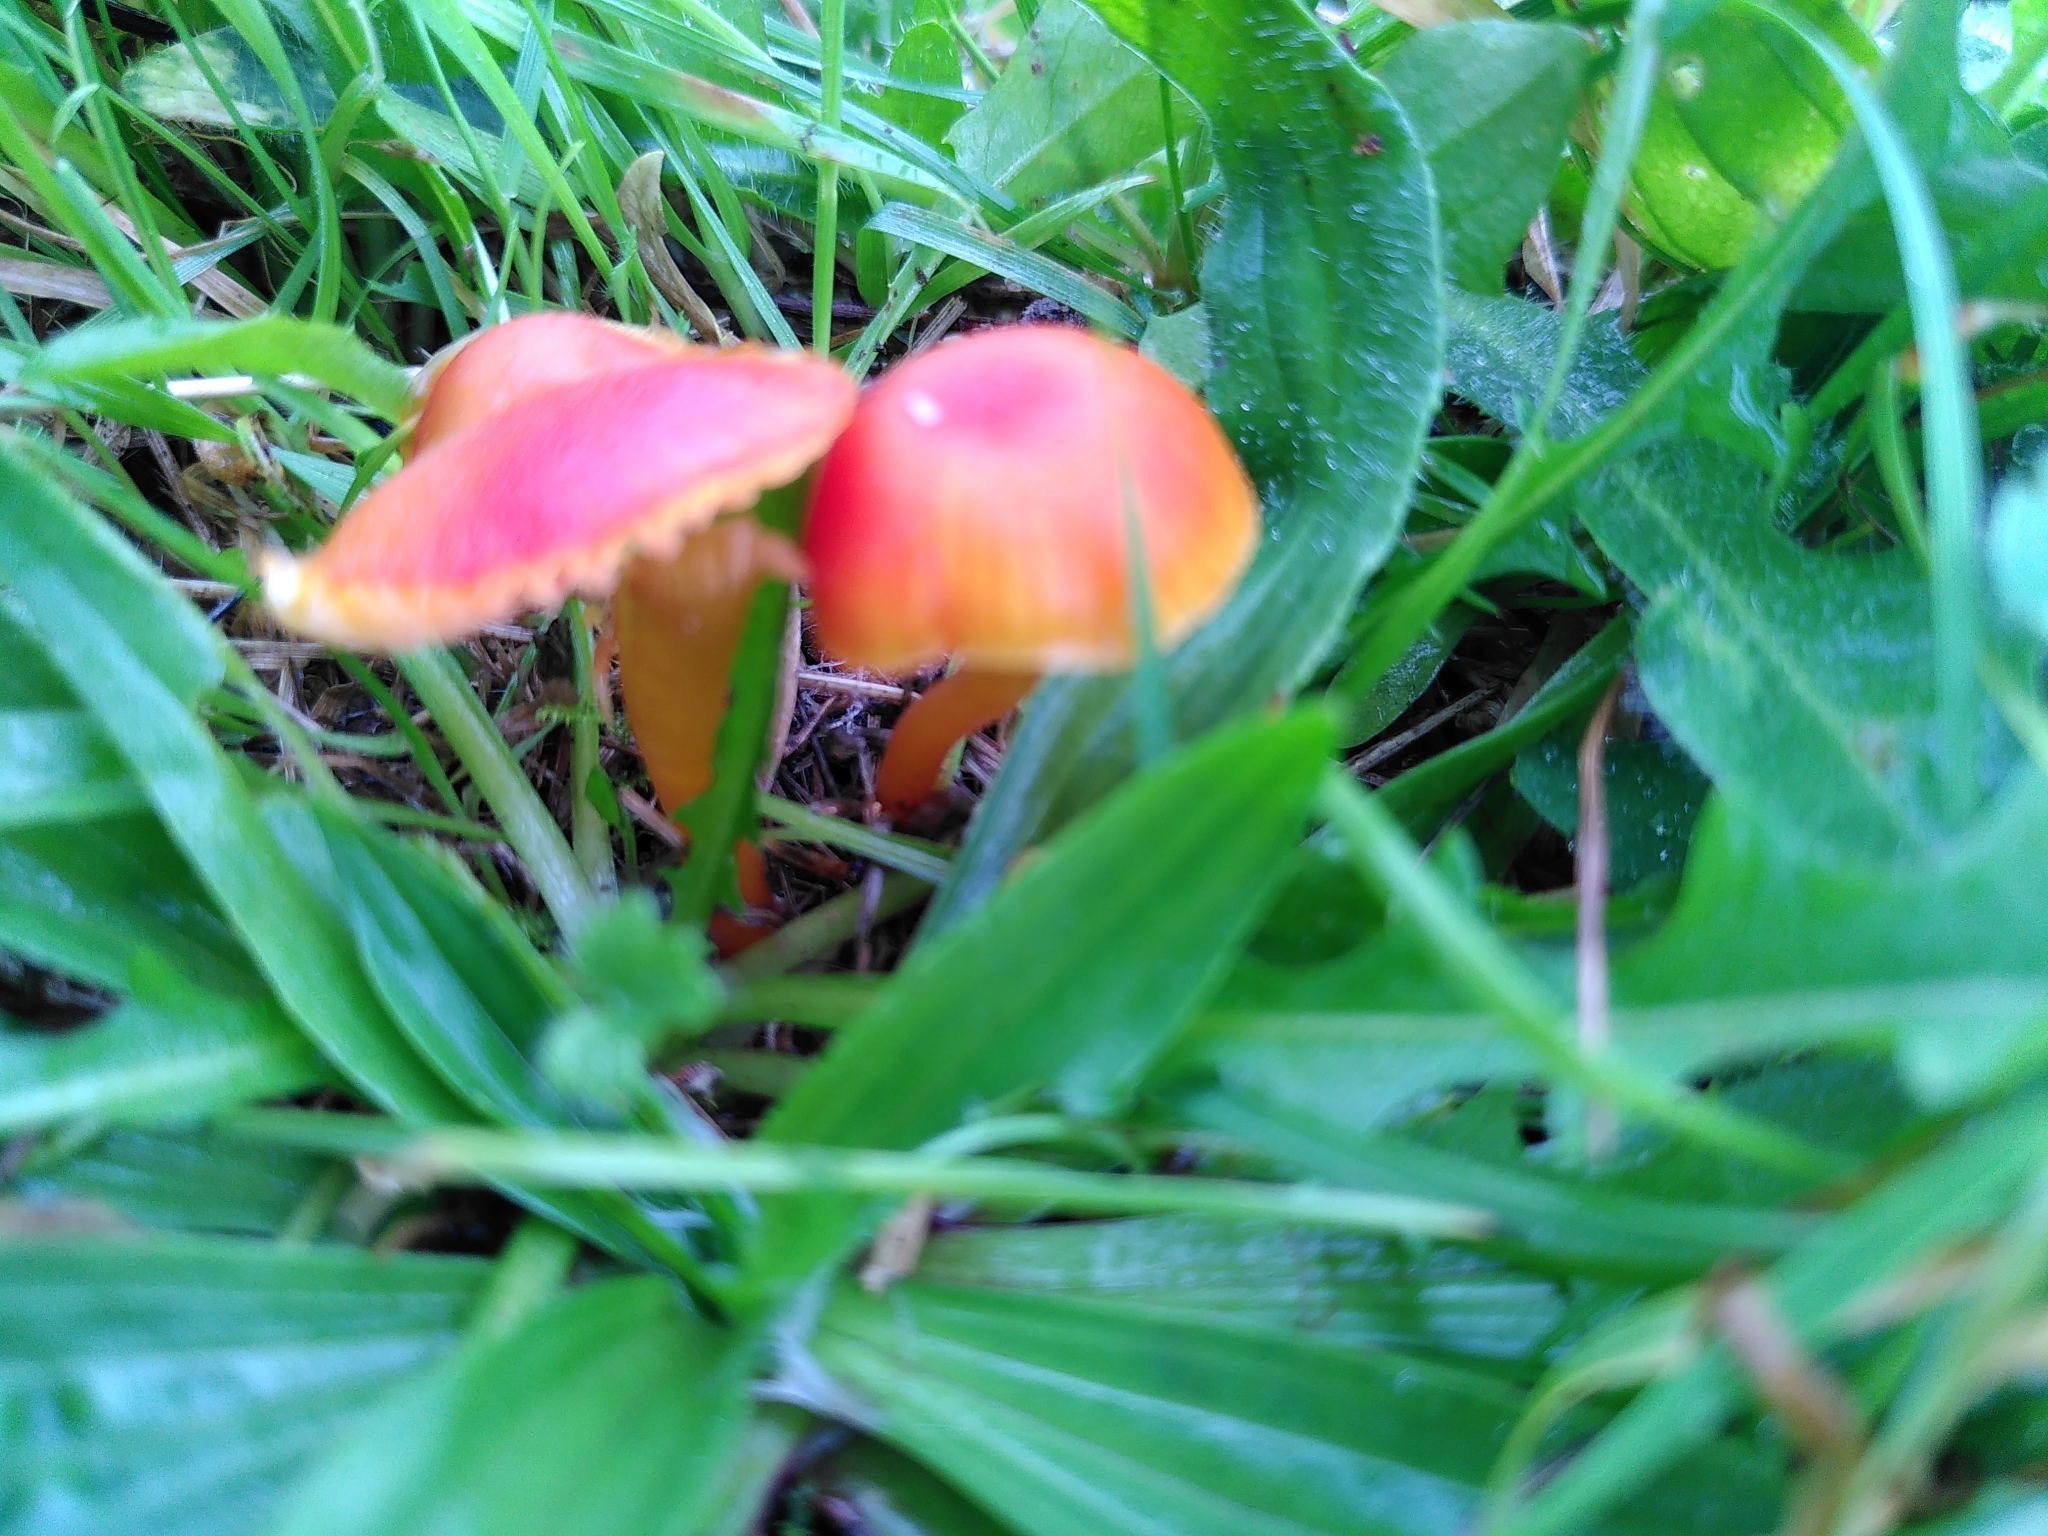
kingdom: Fungi
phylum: Basidiomycota
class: Agaricomycetes
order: Agaricales
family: Hygrophoraceae
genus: Hygrocybe
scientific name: Hygrocybe insipida
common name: Spangle waxcap
